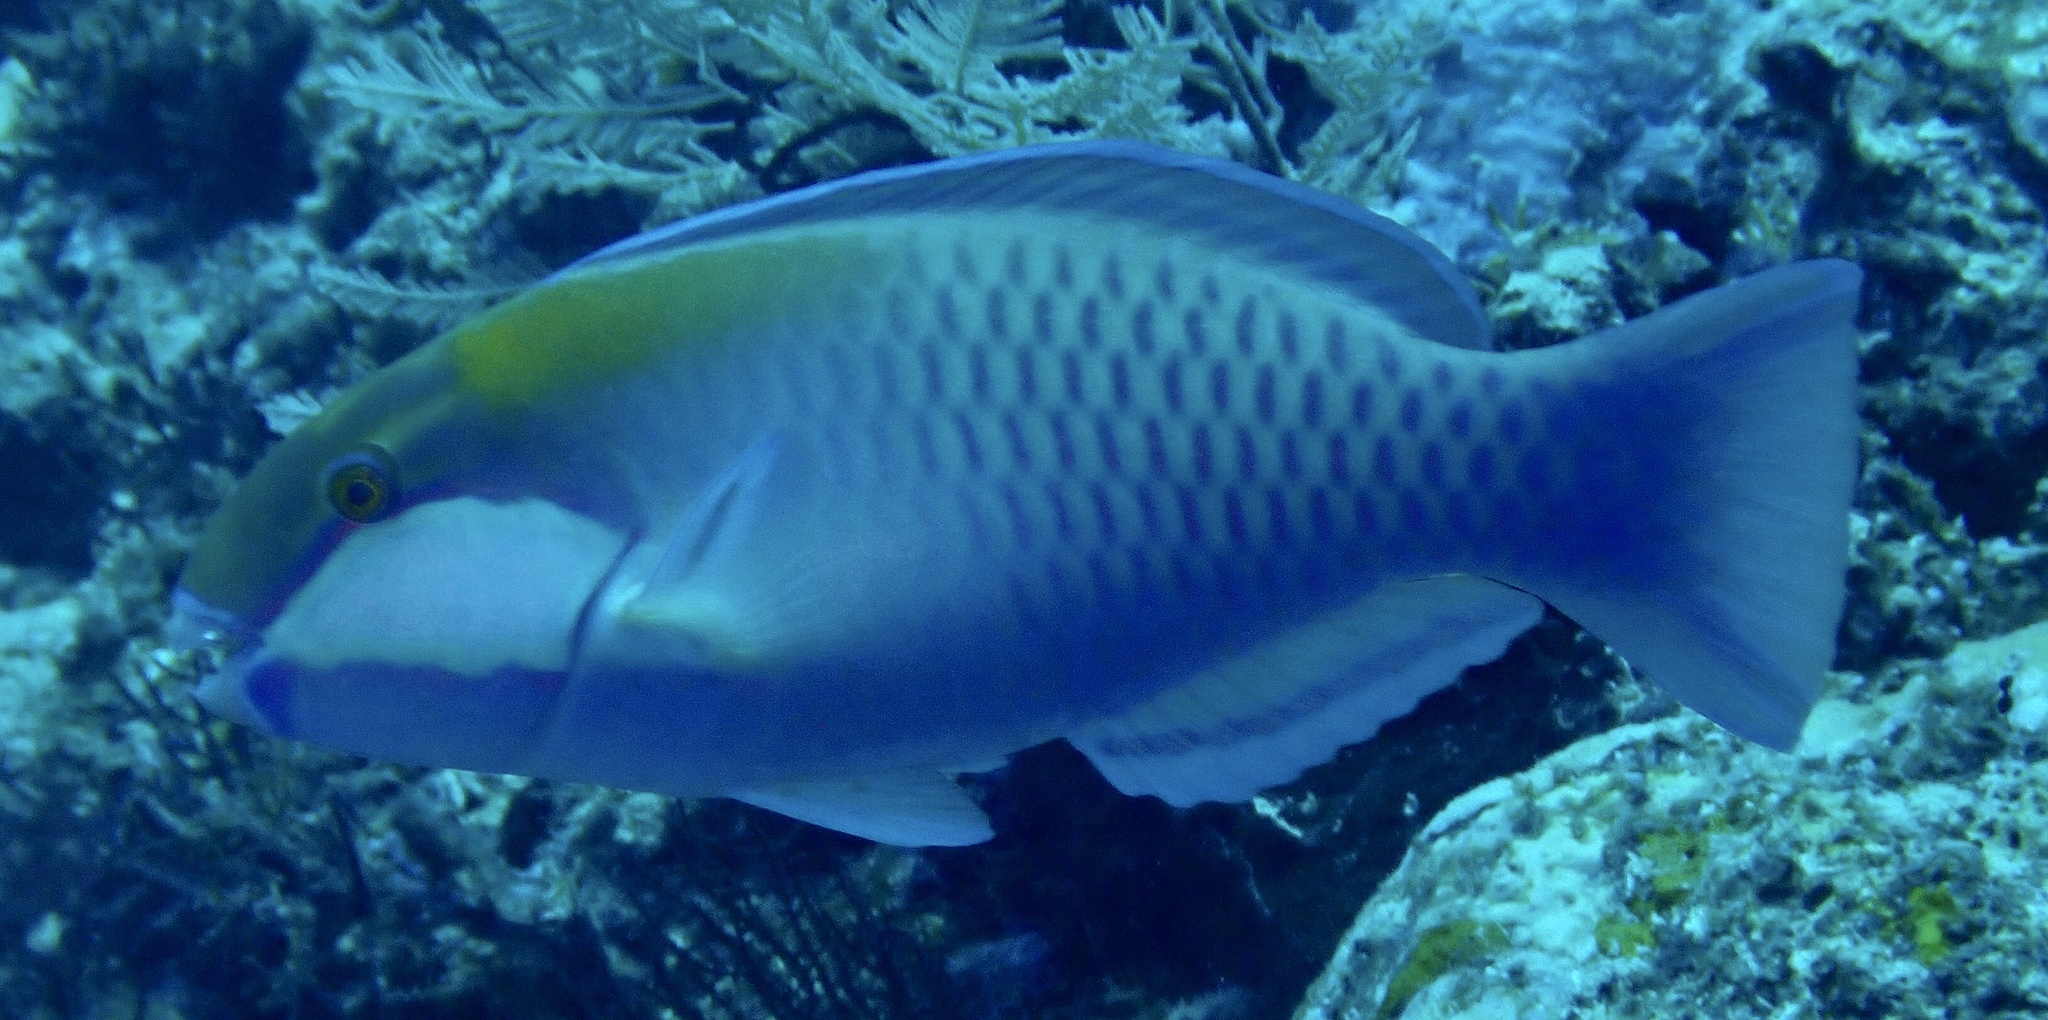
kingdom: Animalia
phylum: Chordata
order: Perciformes
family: Scaridae
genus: Chlorurus
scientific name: Chlorurus bleekeri
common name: Bleeker's parrotfish
